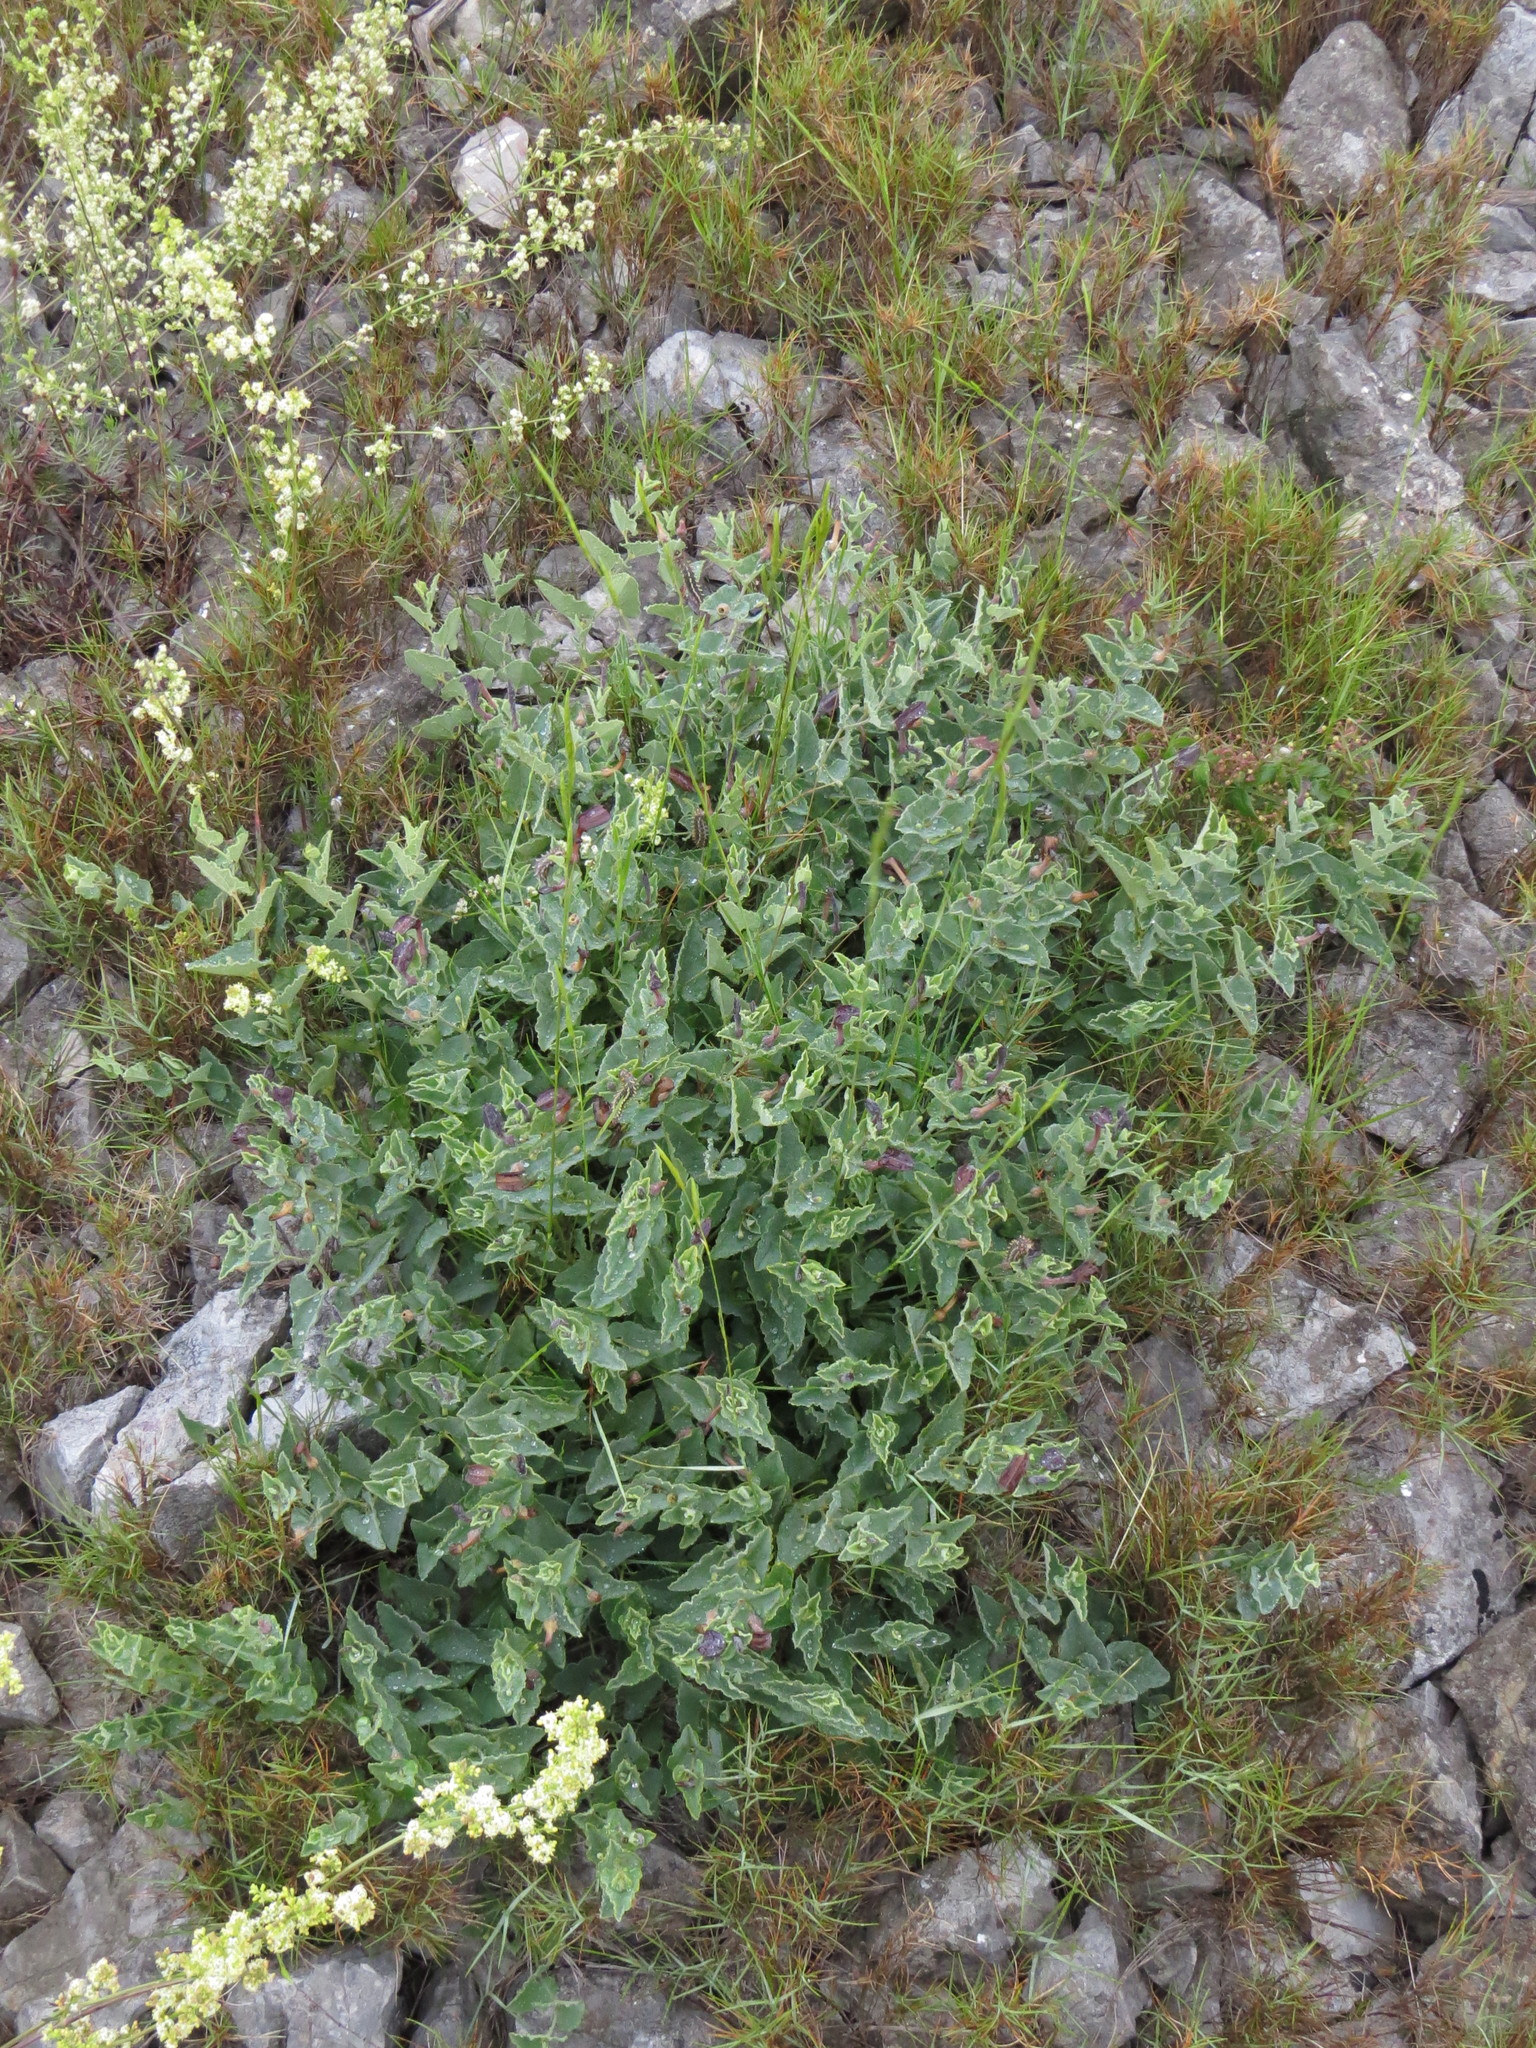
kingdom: Plantae
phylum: Tracheophyta
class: Magnoliopsida
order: Piperales
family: Aristolochiaceae
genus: Aristolochia
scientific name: Aristolochia pistolochia
